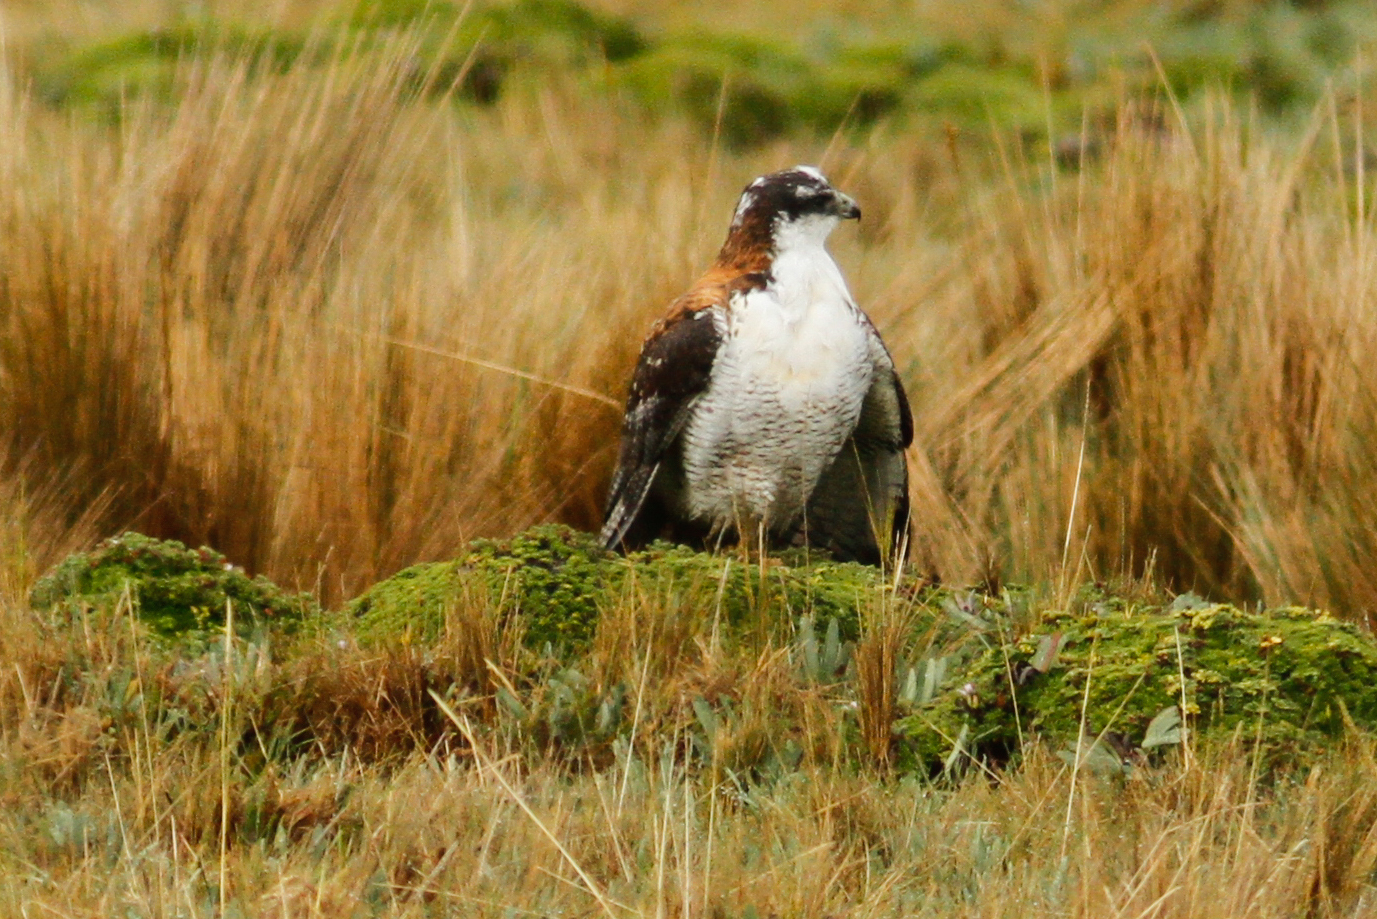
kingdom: Animalia
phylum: Chordata
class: Aves
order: Accipitriformes
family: Accipitridae
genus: Buteo
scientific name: Buteo polyosoma
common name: Variable hawk
